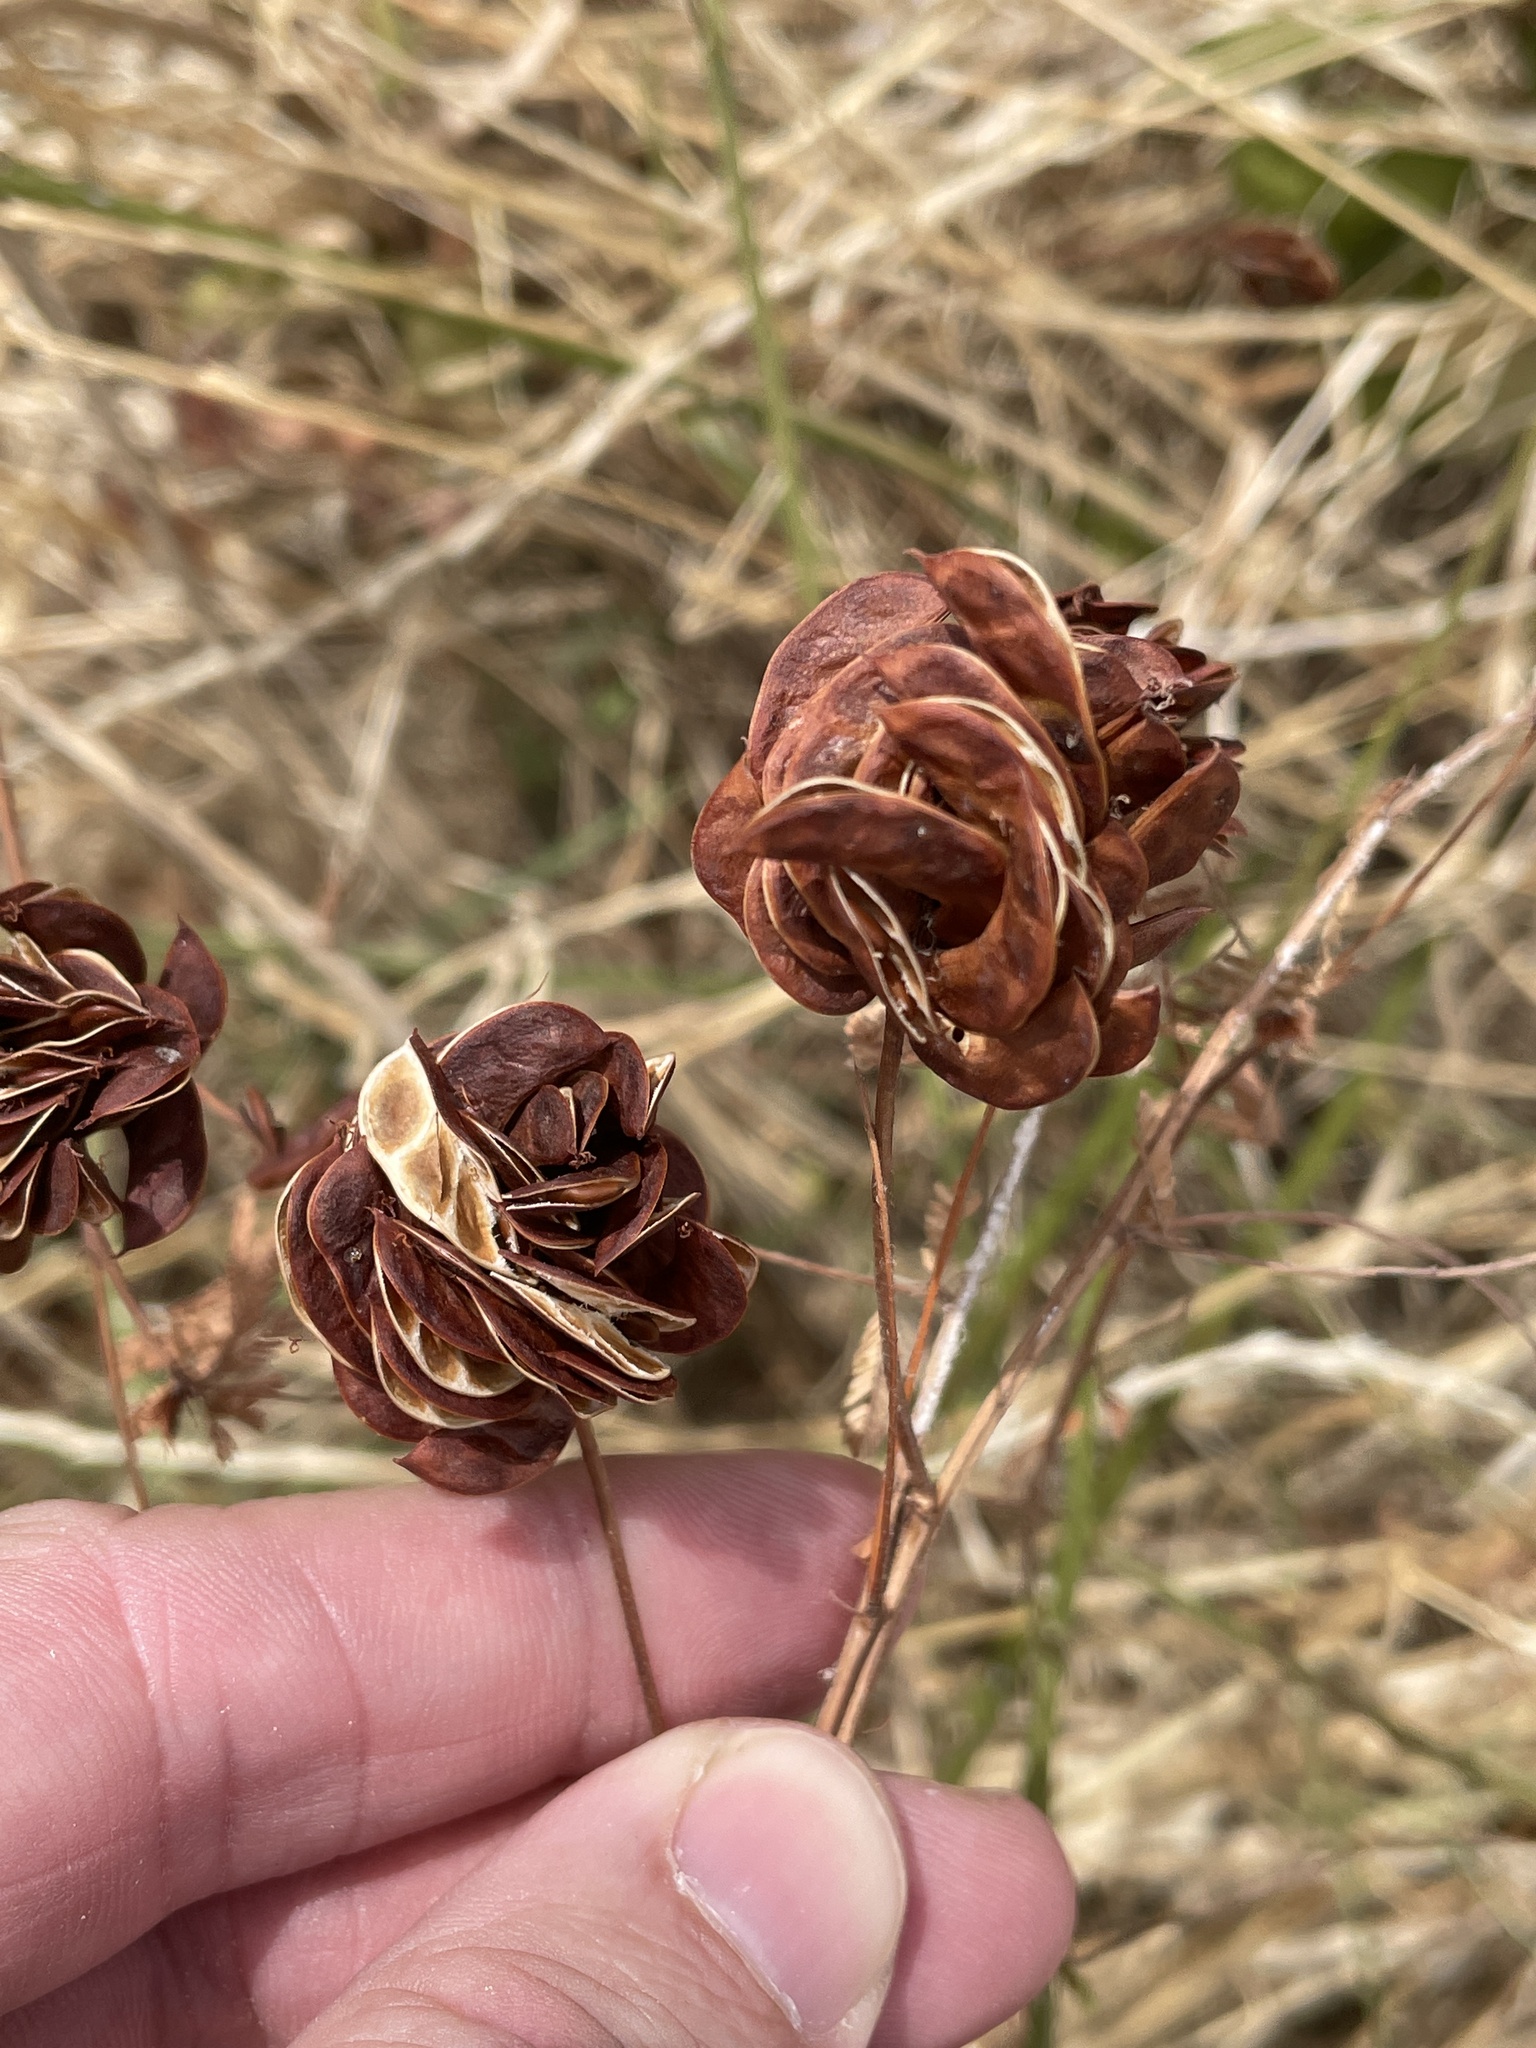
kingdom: Plantae
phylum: Tracheophyta
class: Magnoliopsida
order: Fabales
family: Fabaceae
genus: Desmanthus
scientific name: Desmanthus illinoensis
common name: Illinois bundle-flower
